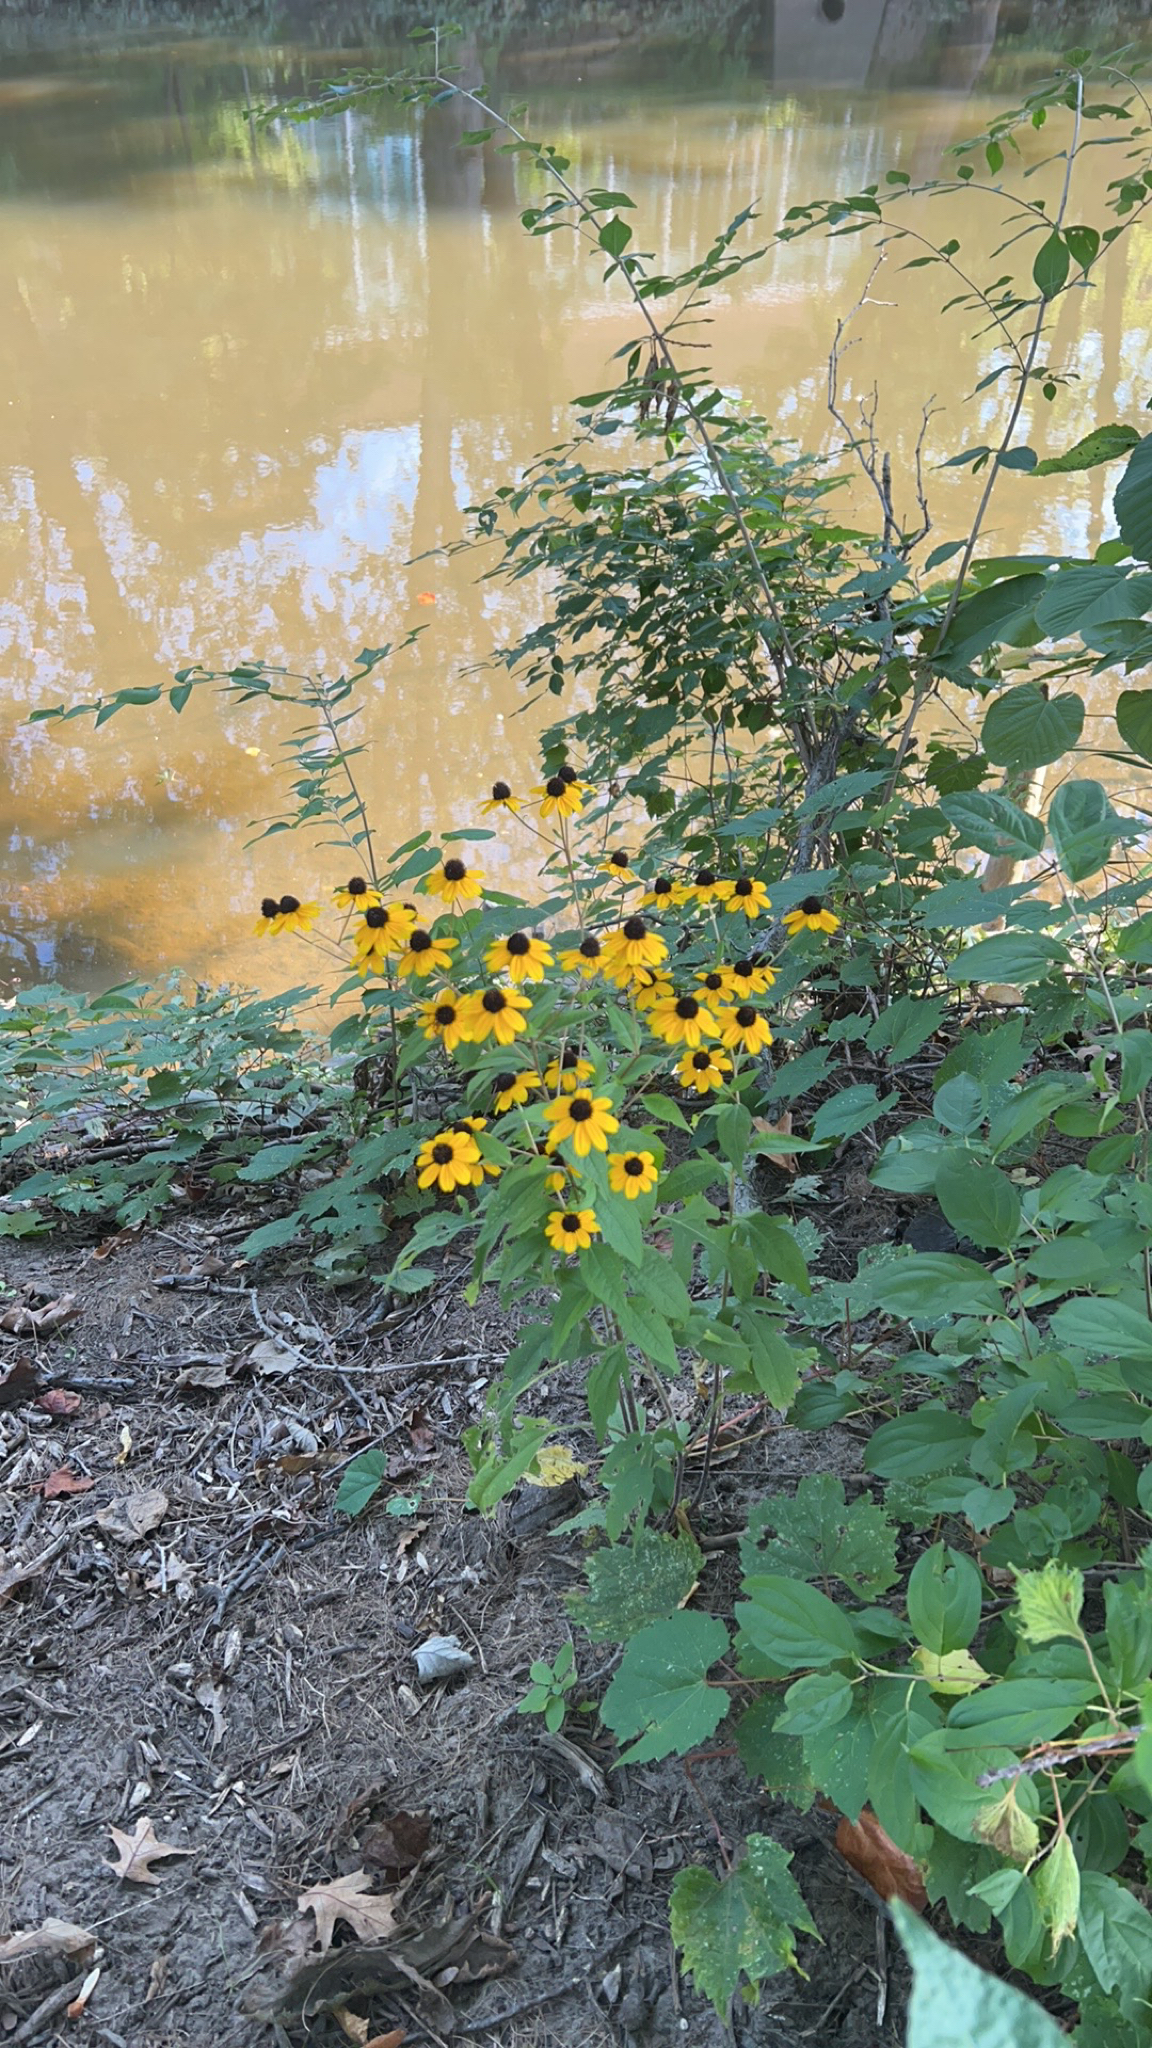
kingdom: Plantae
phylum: Tracheophyta
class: Magnoliopsida
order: Asterales
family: Asteraceae
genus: Rudbeckia
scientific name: Rudbeckia triloba
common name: Thin-leaved coneflower
